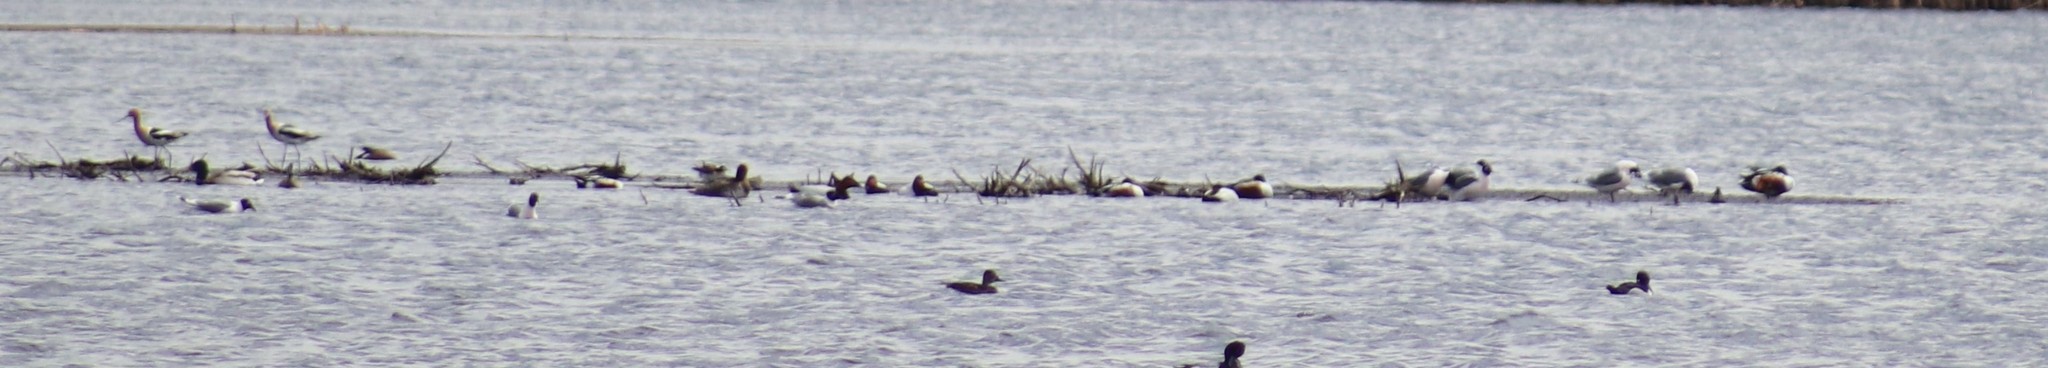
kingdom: Animalia
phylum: Chordata
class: Aves
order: Charadriiformes
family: Recurvirostridae
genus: Recurvirostra
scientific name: Recurvirostra americana
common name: American avocet
